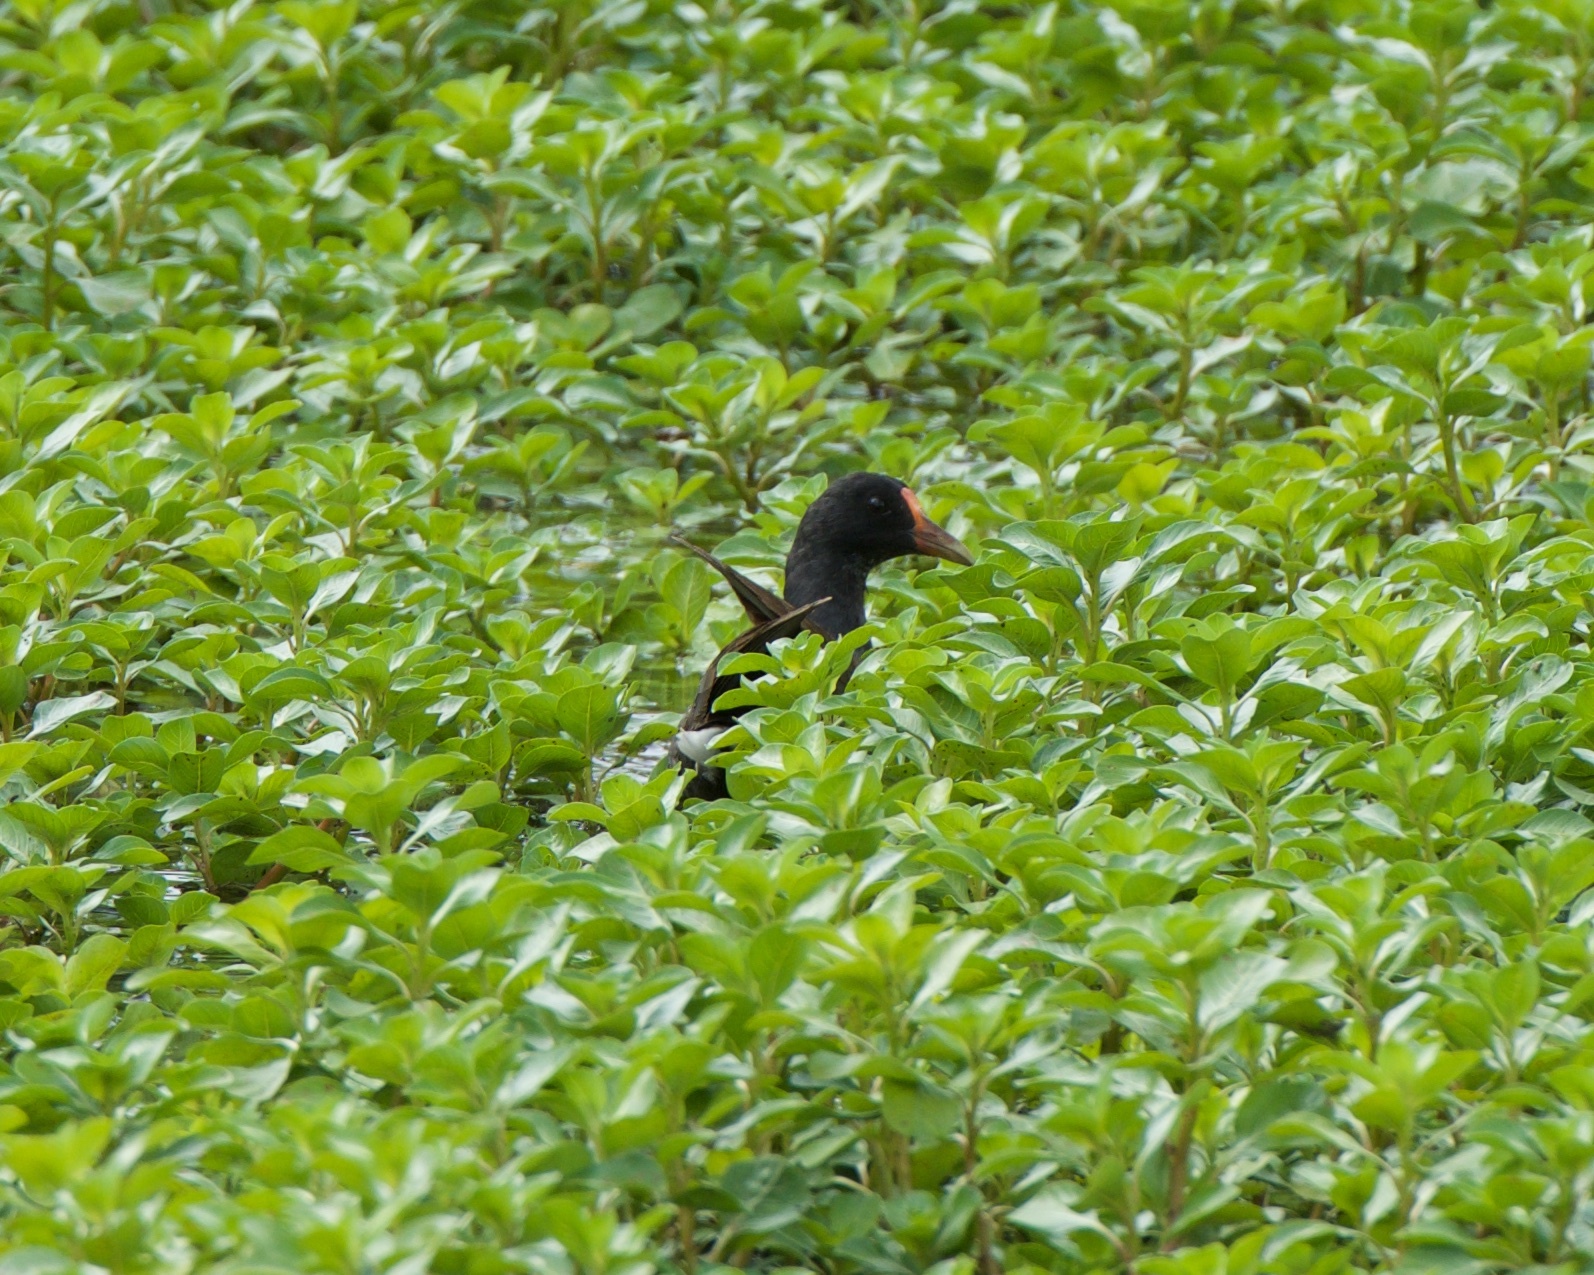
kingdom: Animalia
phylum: Chordata
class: Aves
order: Gruiformes
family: Rallidae
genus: Gallinula
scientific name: Gallinula chloropus
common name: Common moorhen
